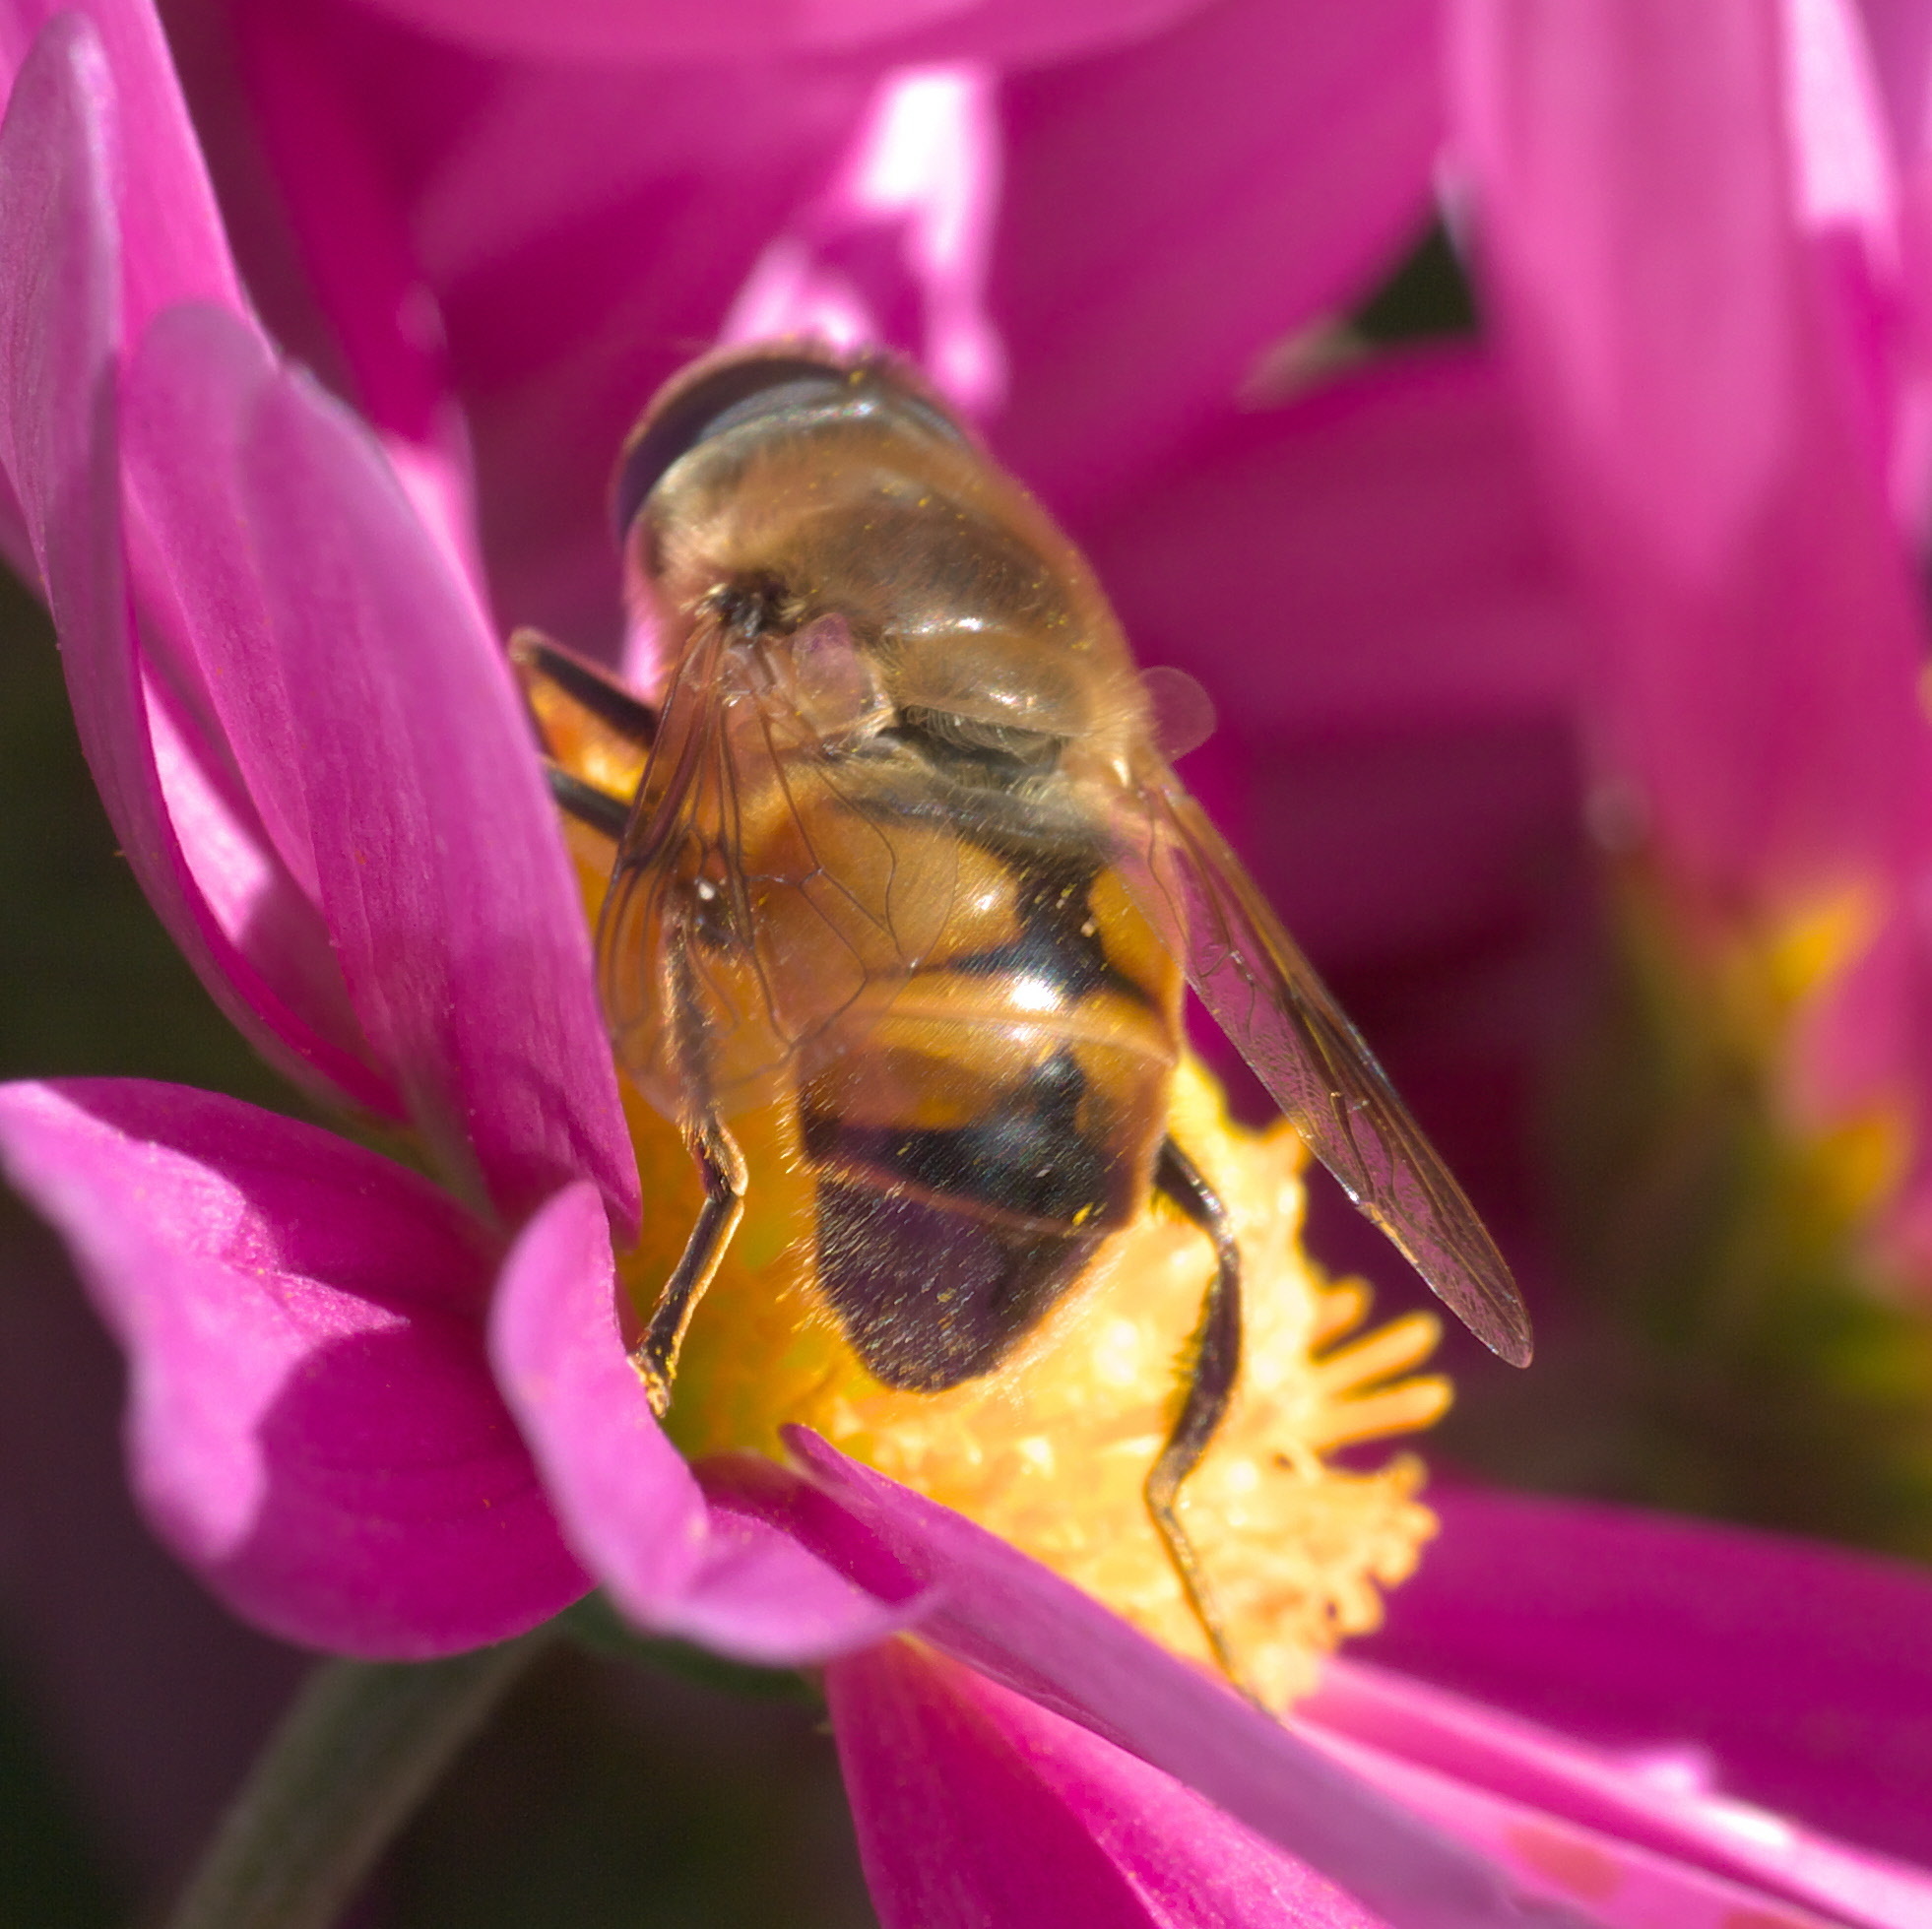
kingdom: Animalia
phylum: Arthropoda
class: Insecta
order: Diptera
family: Syrphidae
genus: Eristalis
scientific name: Eristalis tenax
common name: Drone fly
